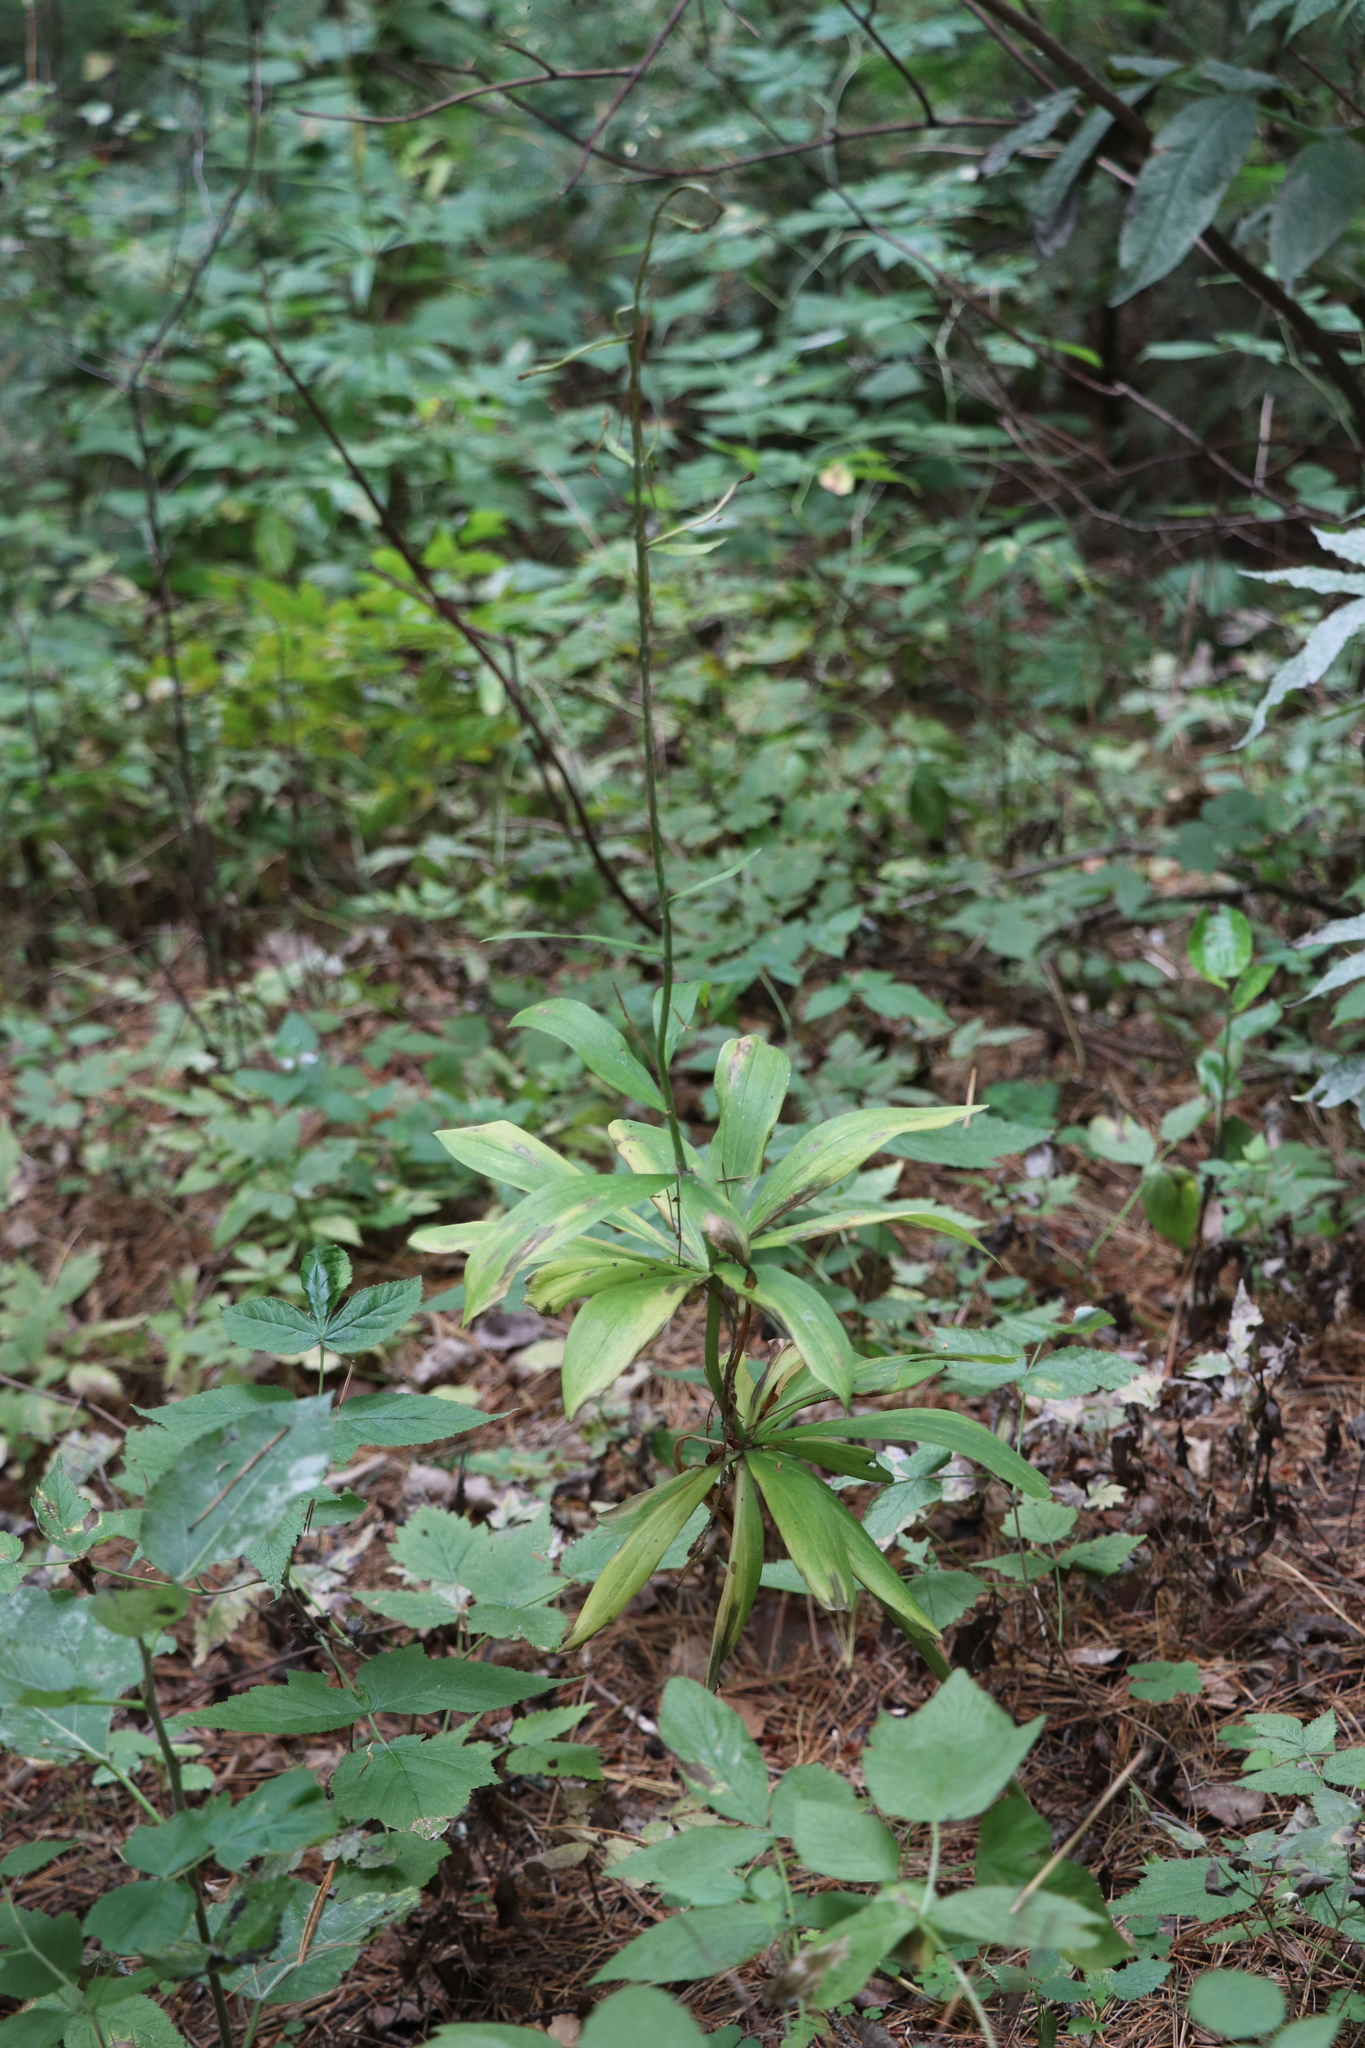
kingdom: Plantae
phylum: Tracheophyta
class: Liliopsida
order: Liliales
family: Liliaceae
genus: Lilium
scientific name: Lilium martagon
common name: Martagon lily
